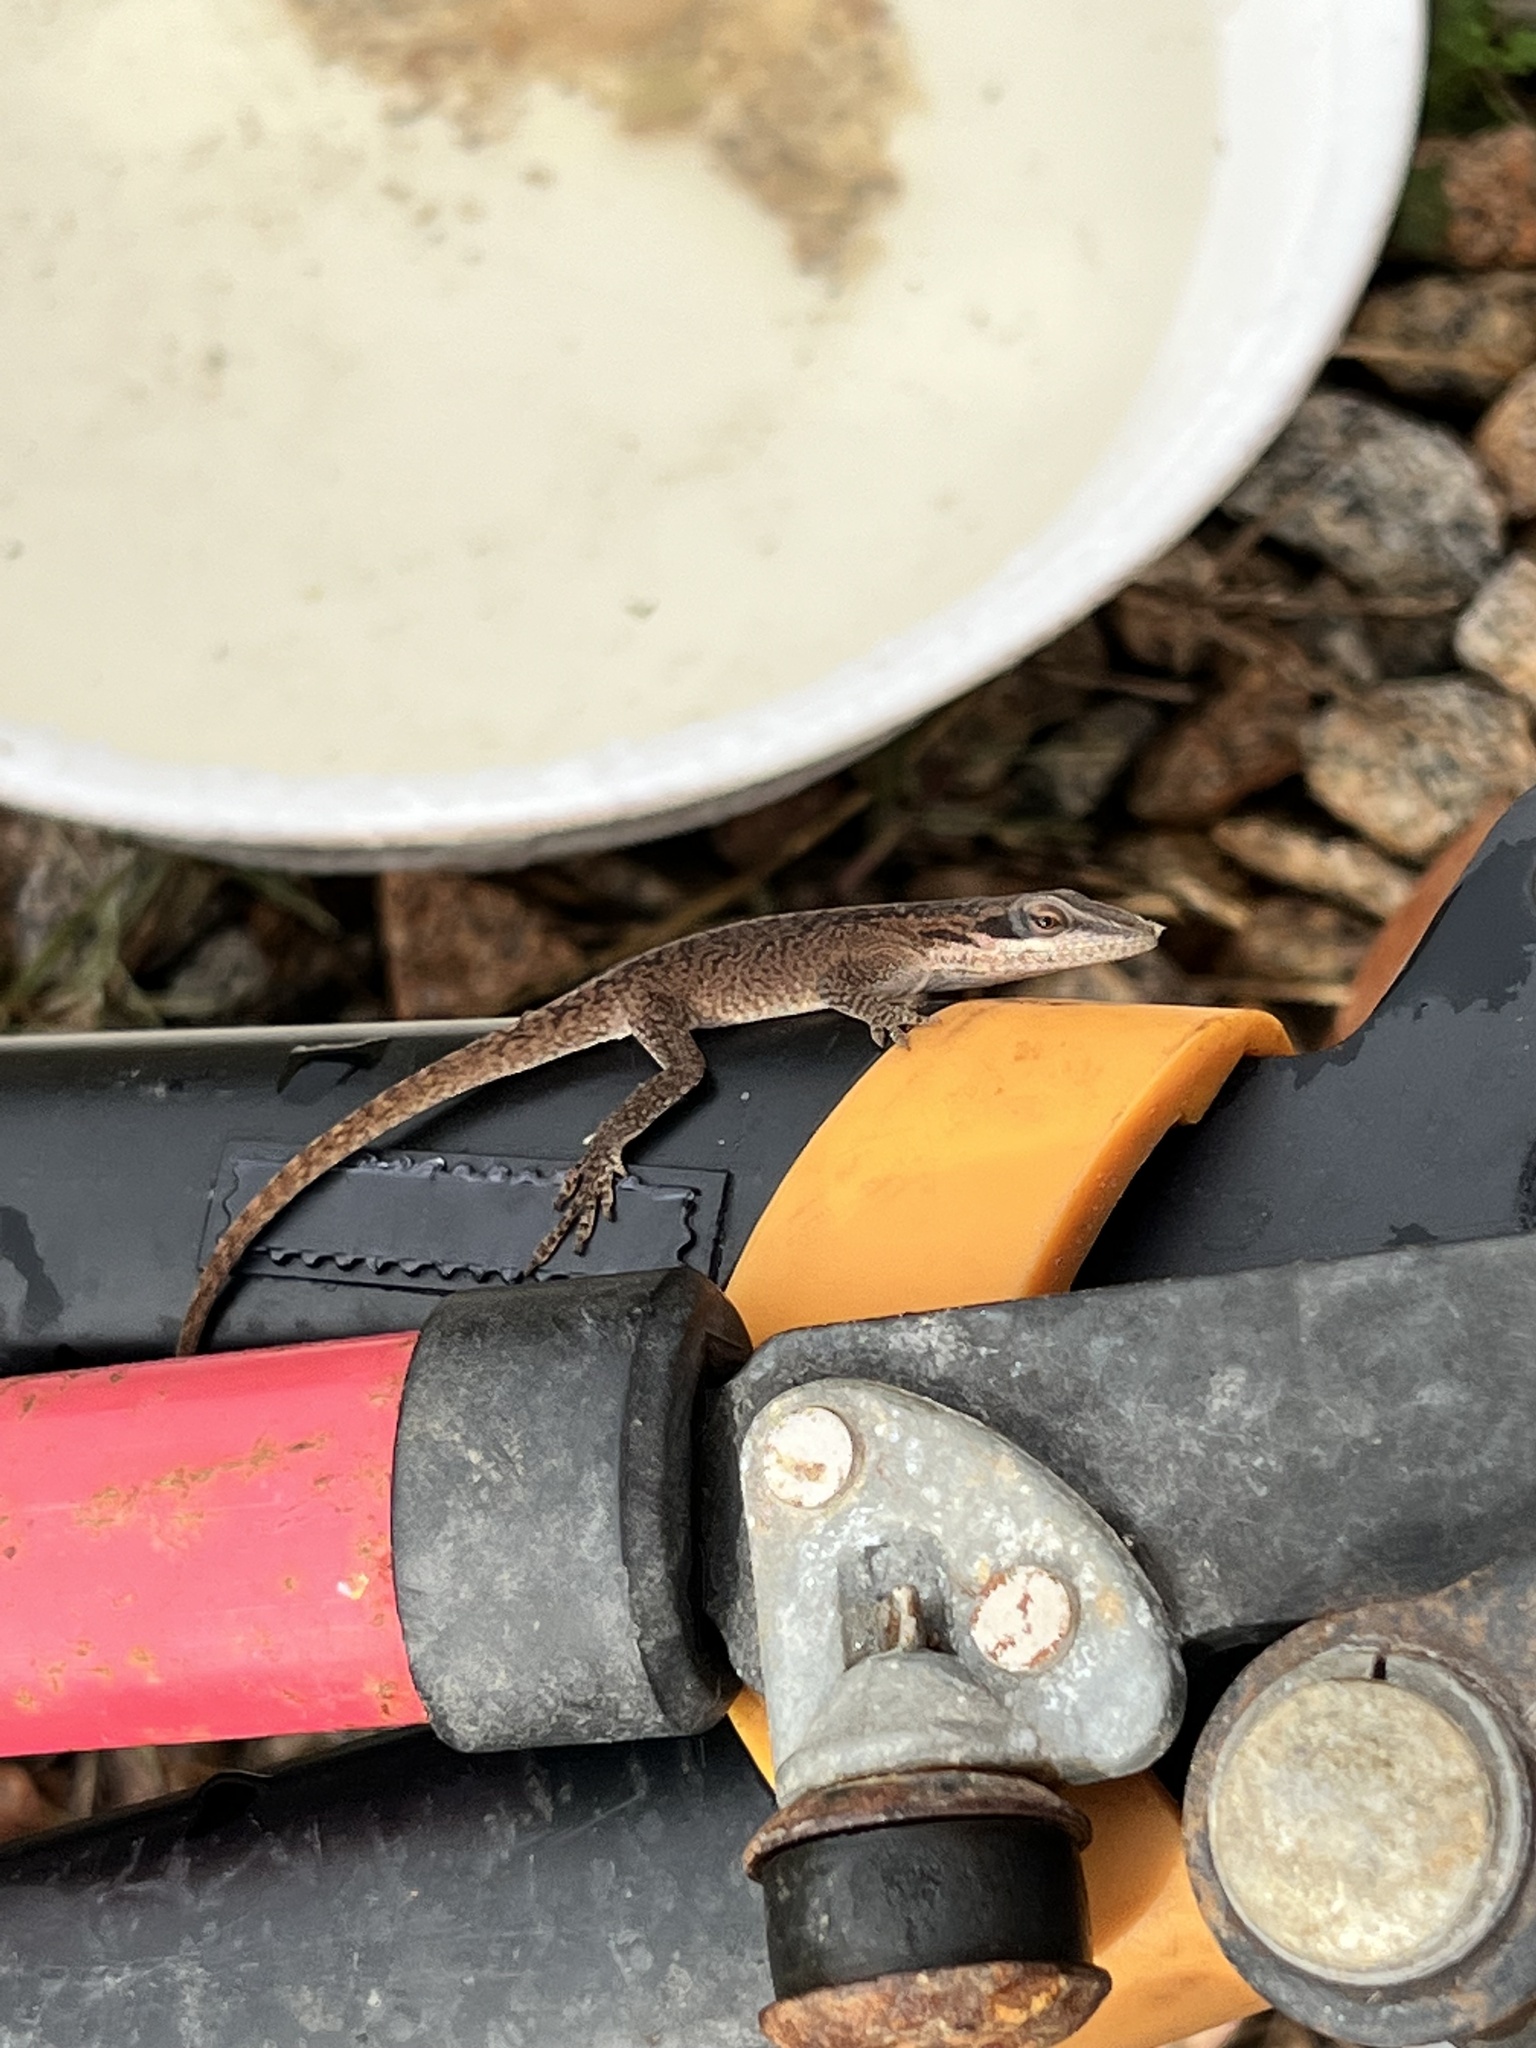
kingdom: Animalia
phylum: Chordata
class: Squamata
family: Dactyloidae
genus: Anolis
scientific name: Anolis carolinensis
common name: Green anole
